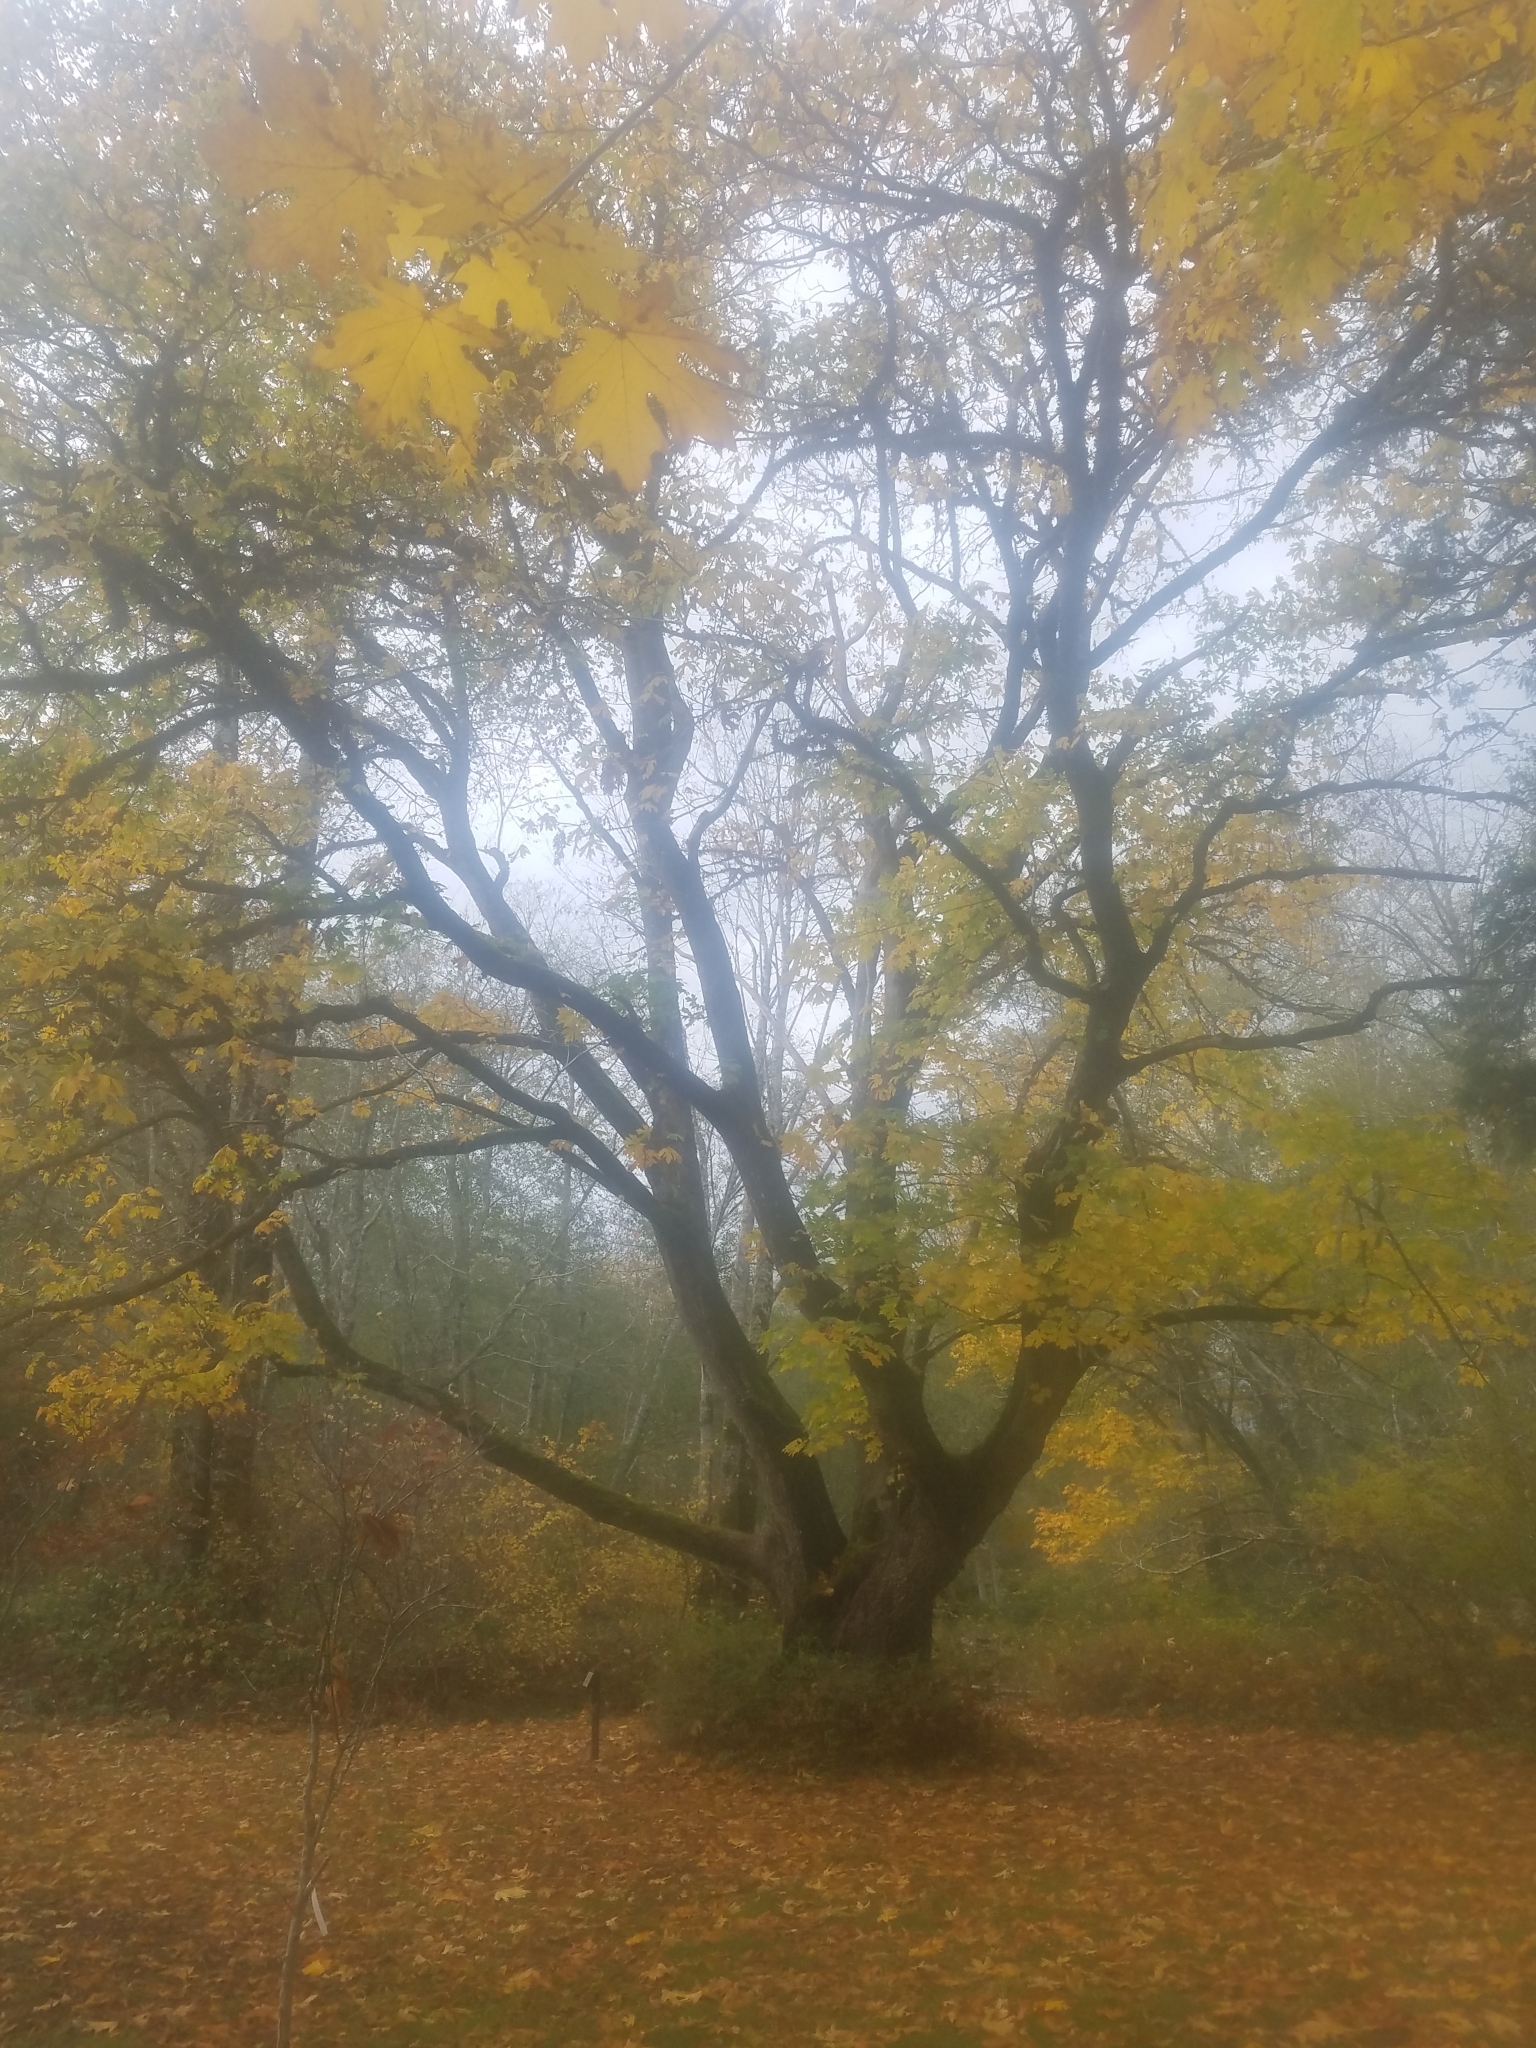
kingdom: Plantae
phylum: Tracheophyta
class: Magnoliopsida
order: Sapindales
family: Sapindaceae
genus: Acer
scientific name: Acer macrophyllum
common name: Oregon maple
